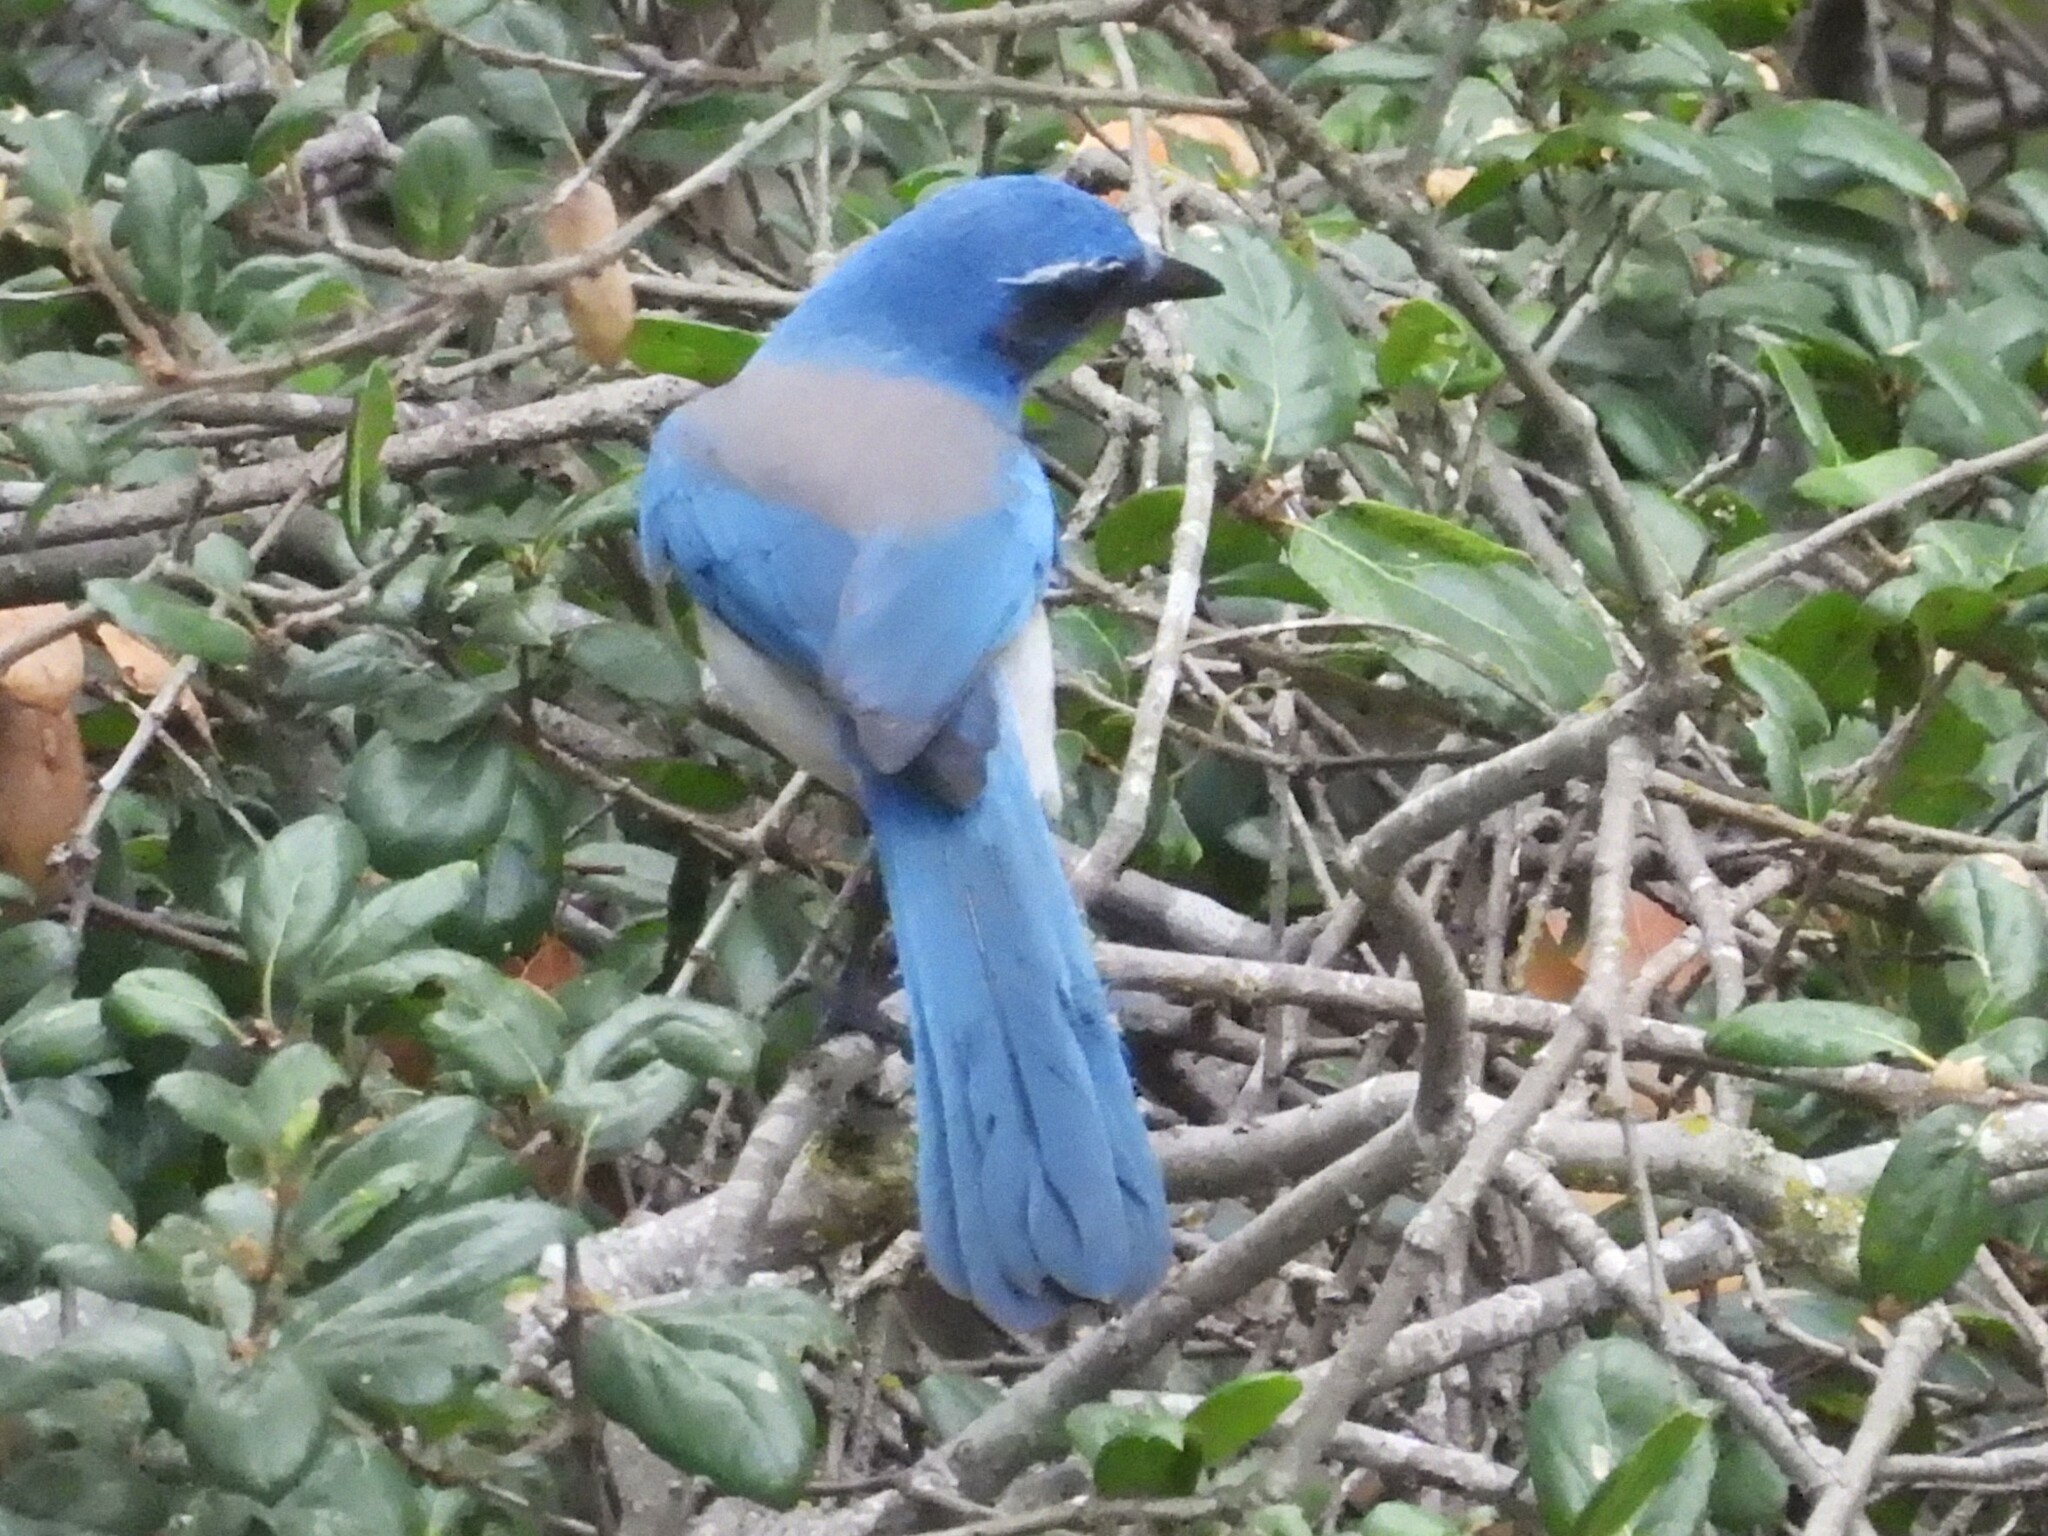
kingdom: Animalia
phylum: Chordata
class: Aves
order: Passeriformes
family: Corvidae
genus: Aphelocoma
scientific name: Aphelocoma californica
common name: California scrub-jay
